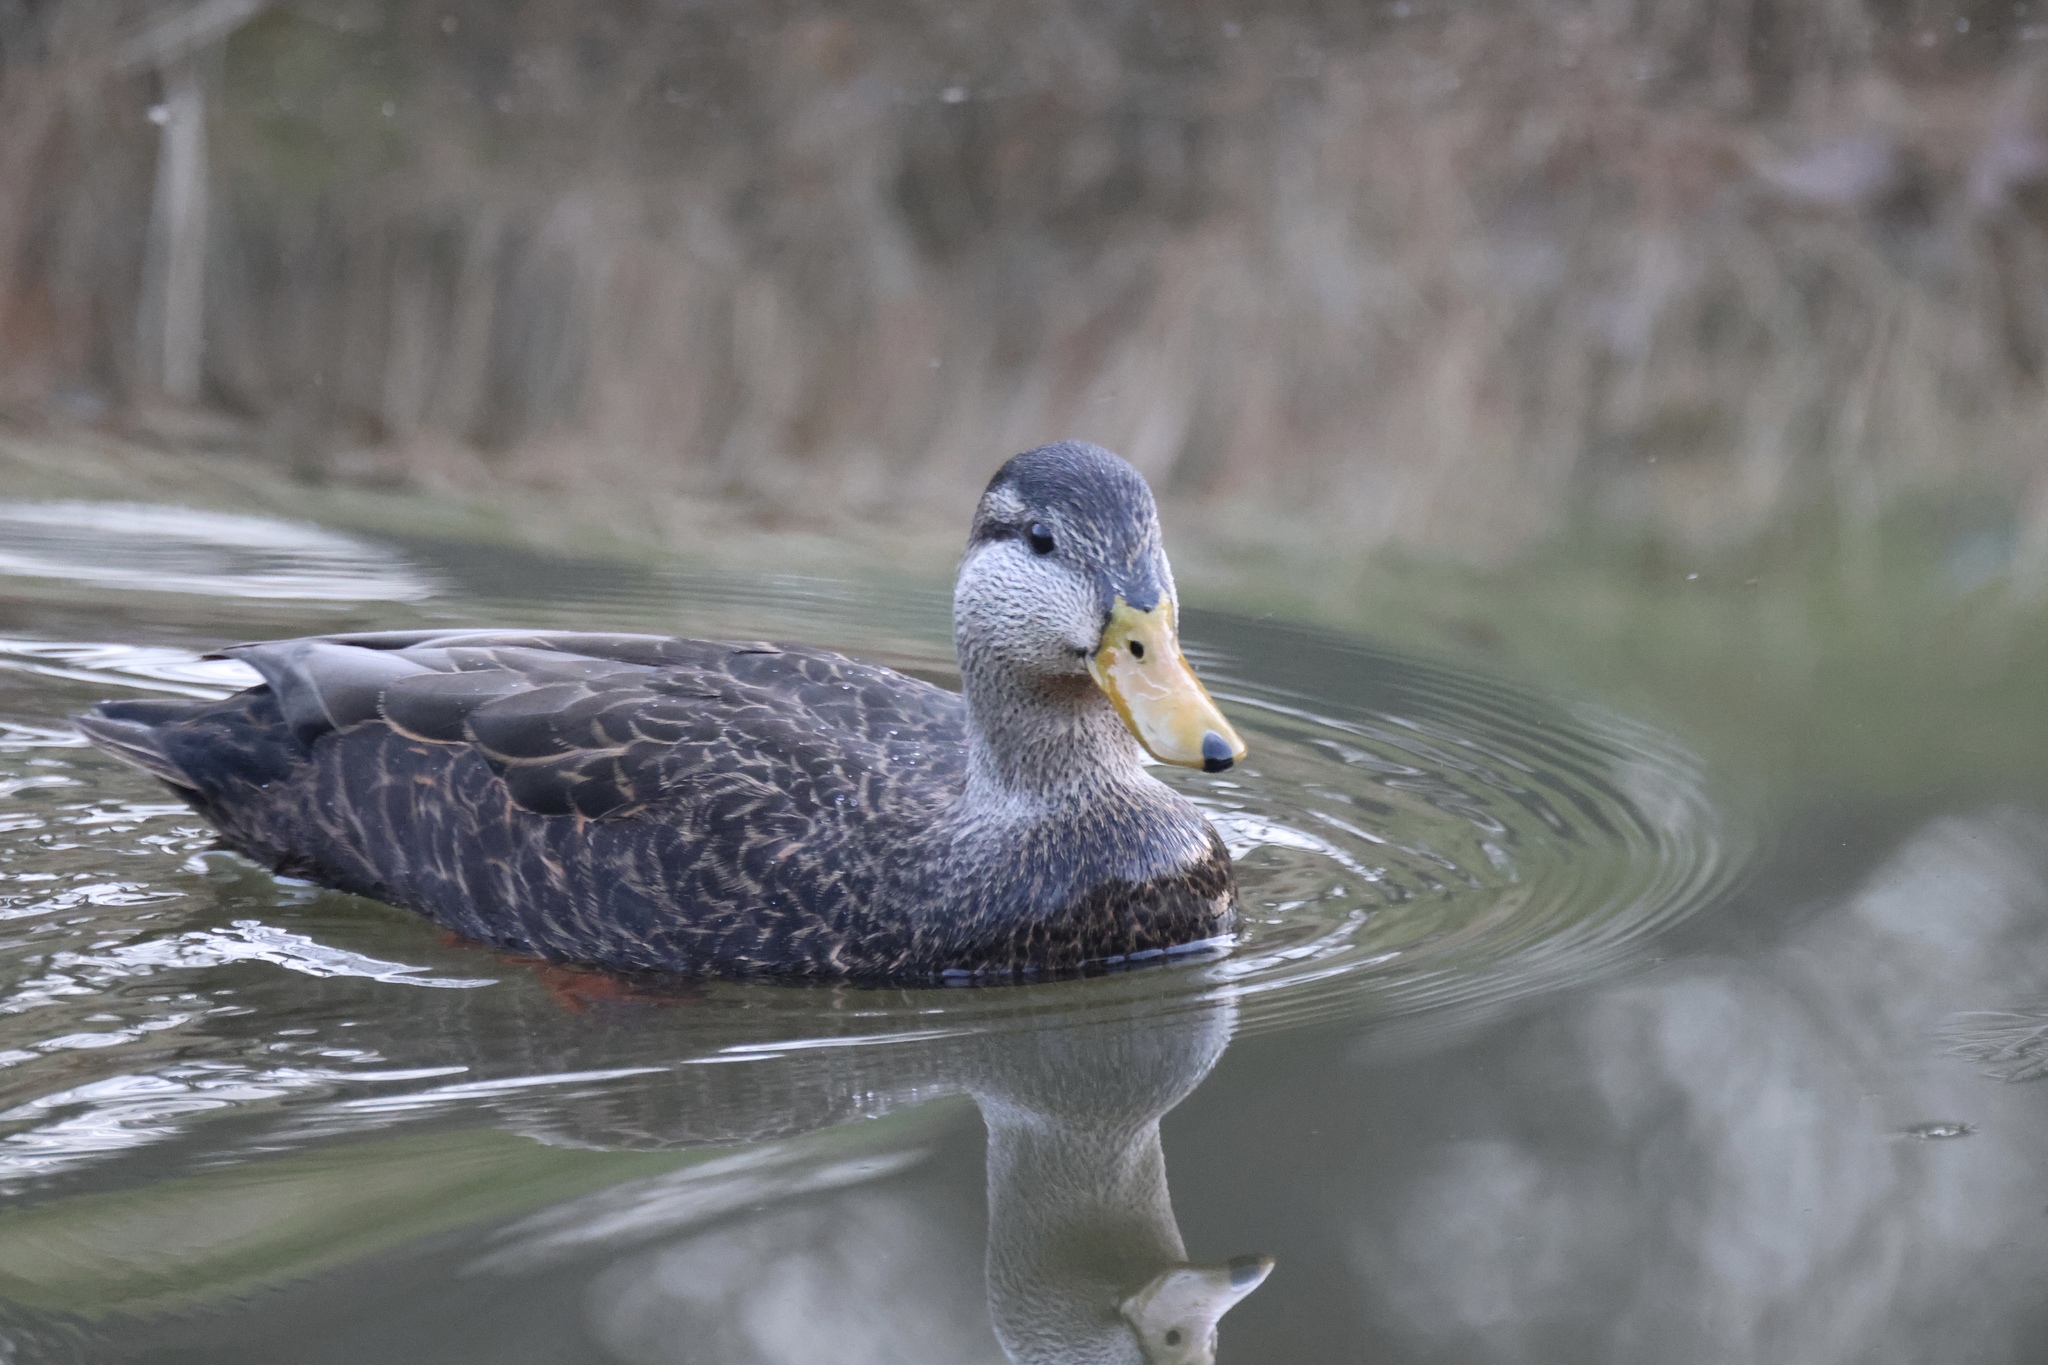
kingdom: Animalia
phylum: Chordata
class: Aves
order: Anseriformes
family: Anatidae
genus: Anas
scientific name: Anas rubripes
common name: American black duck
